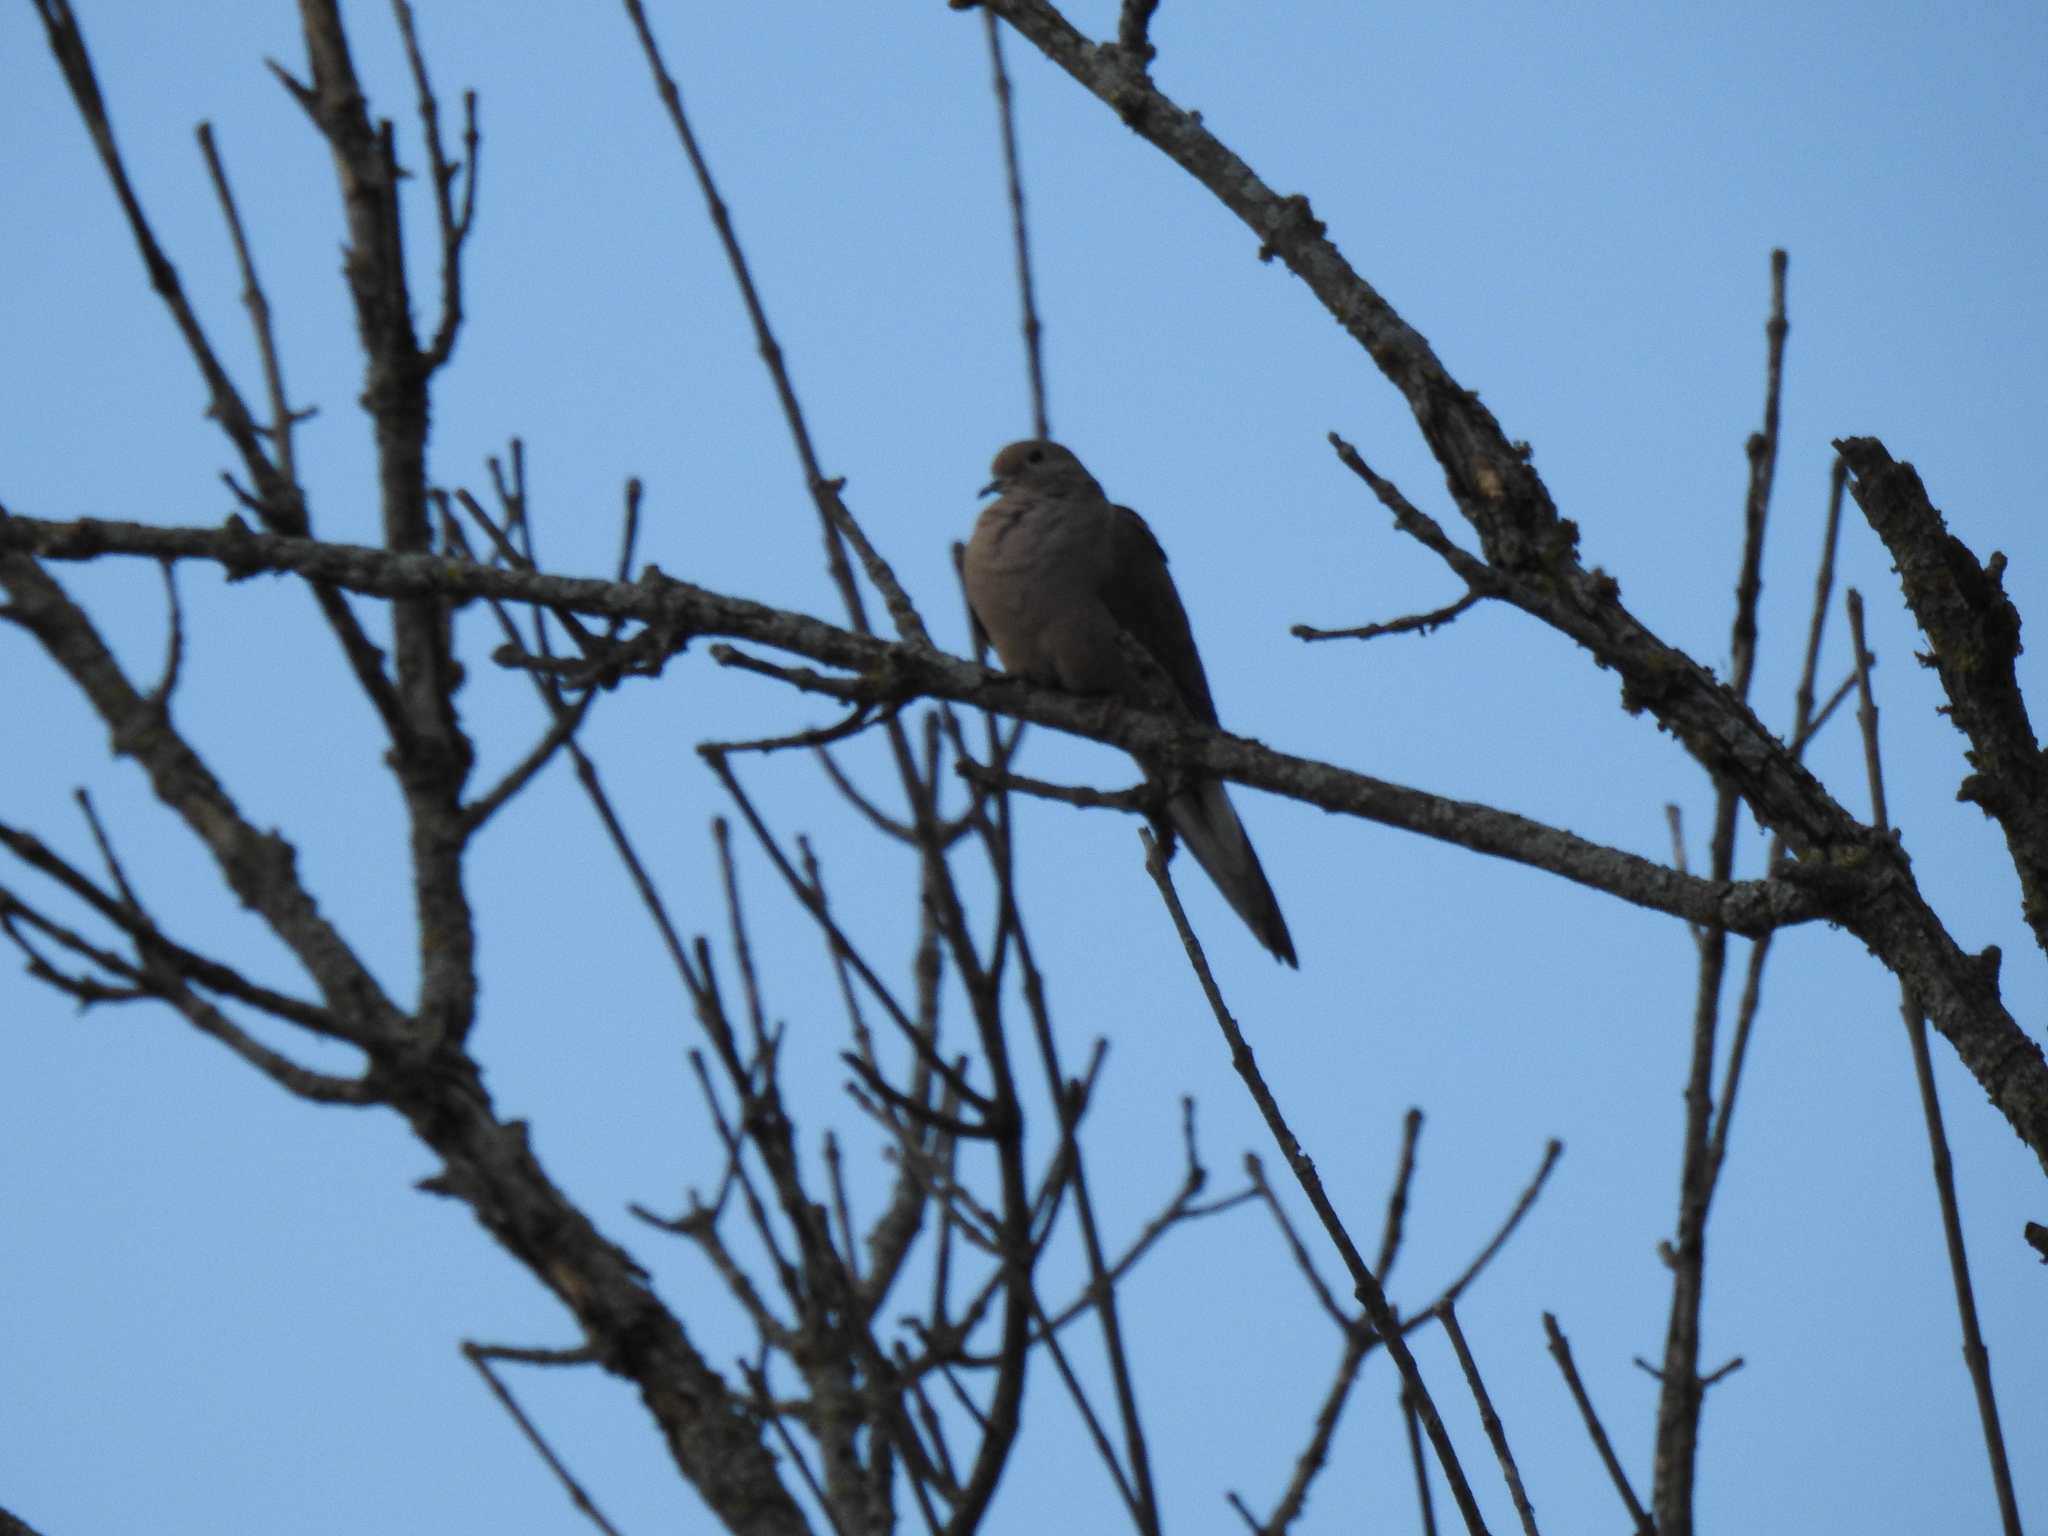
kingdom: Animalia
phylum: Chordata
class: Aves
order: Columbiformes
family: Columbidae
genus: Zenaida
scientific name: Zenaida macroura
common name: Mourning dove
